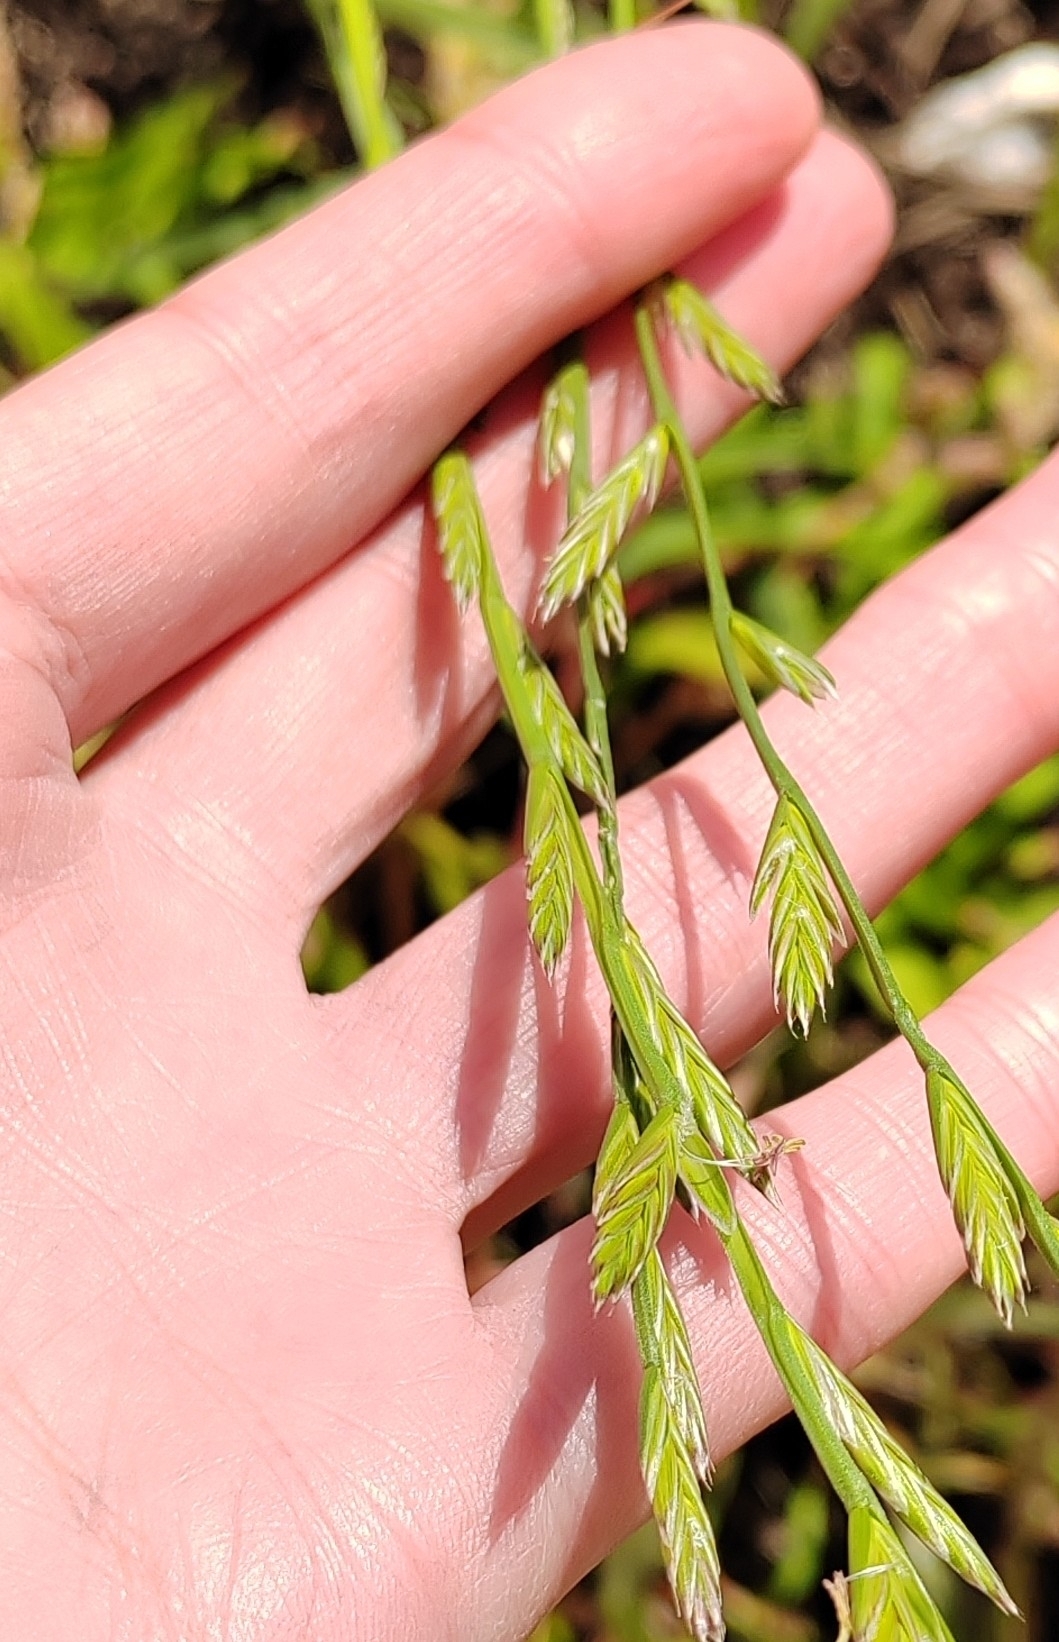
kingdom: Plantae
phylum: Tracheophyta
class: Liliopsida
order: Poales
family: Poaceae
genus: Lolium
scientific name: Lolium perenne
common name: Perennial ryegrass
